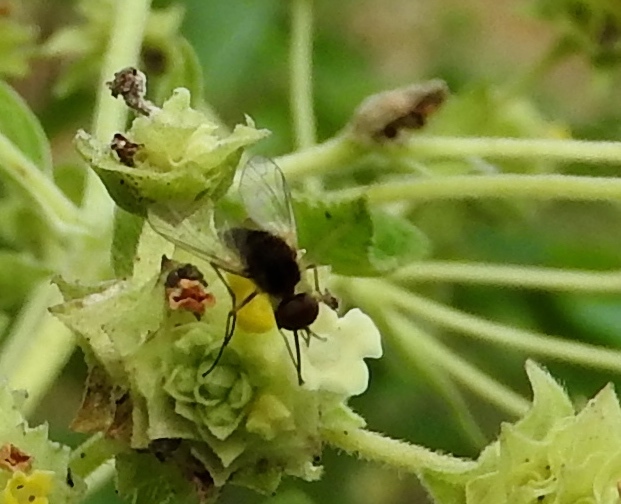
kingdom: Animalia
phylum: Arthropoda
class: Insecta
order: Diptera
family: Bombyliidae
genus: Geron
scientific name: Geron
